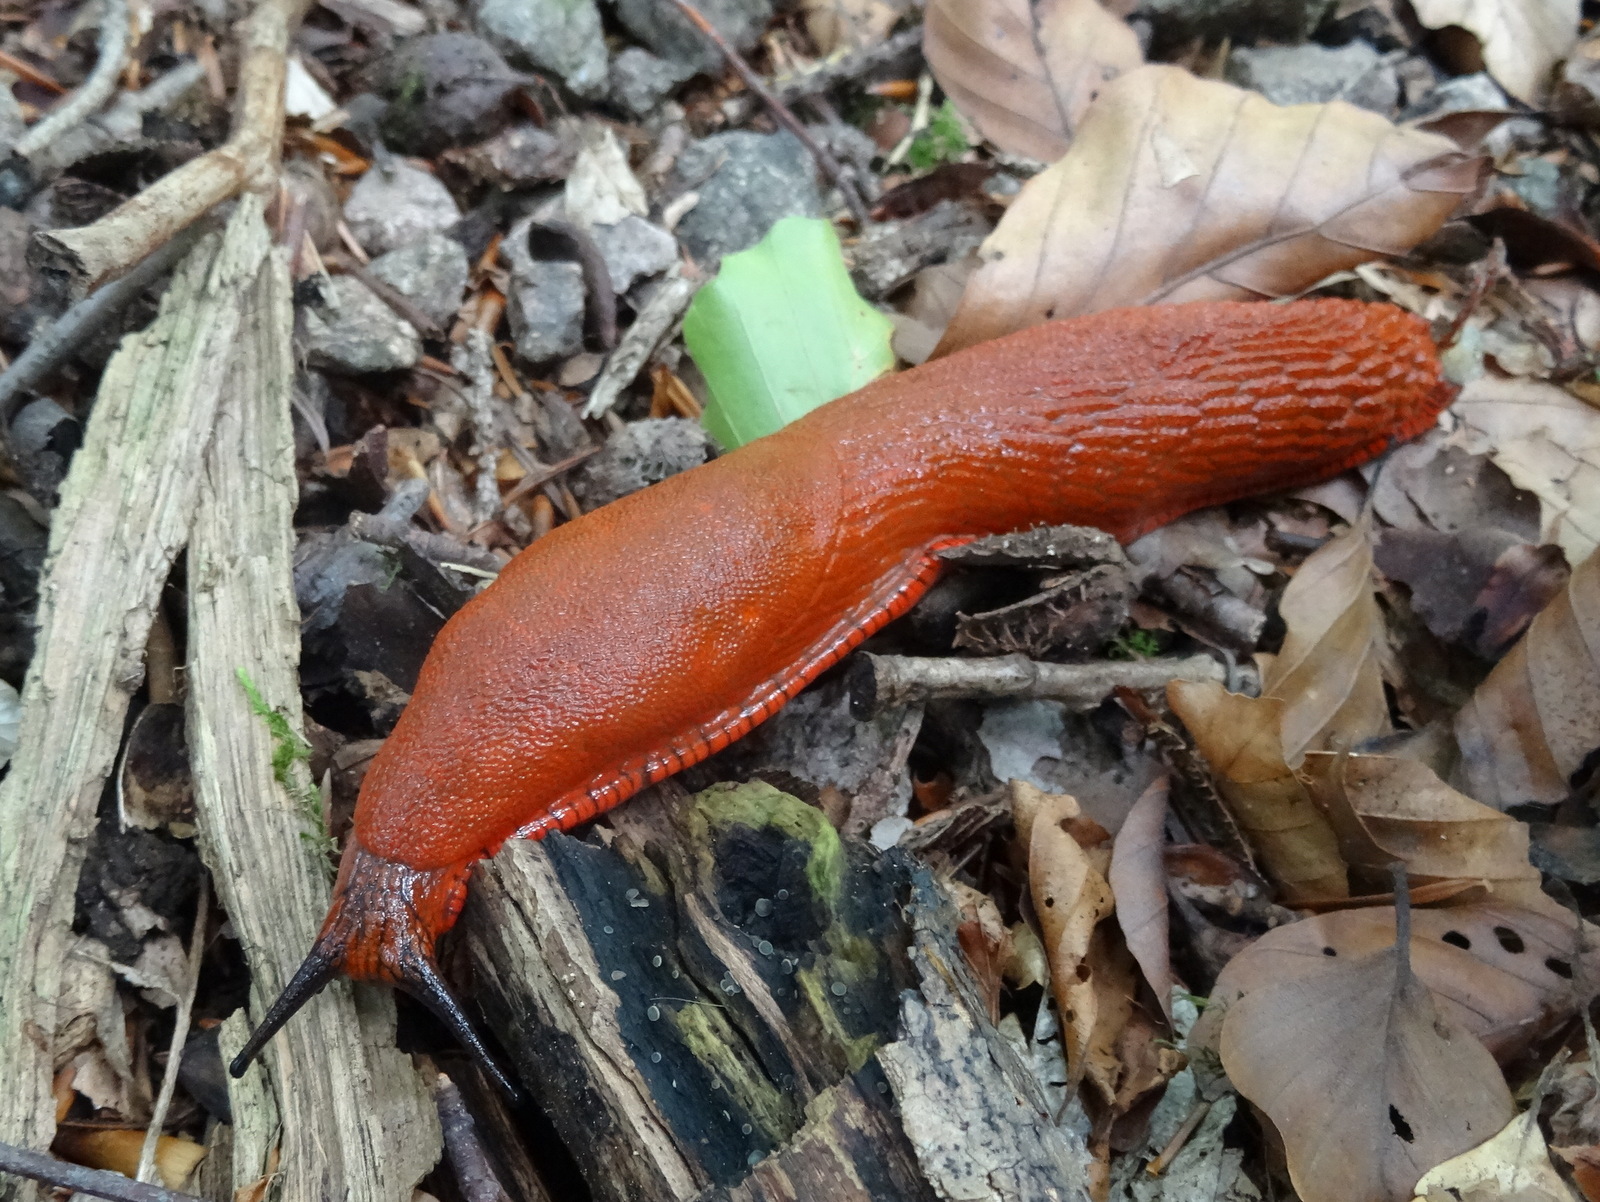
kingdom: Animalia
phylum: Mollusca
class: Gastropoda
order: Stylommatophora
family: Arionidae
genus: Arion
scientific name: Arion rufus
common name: Chocolate arion
